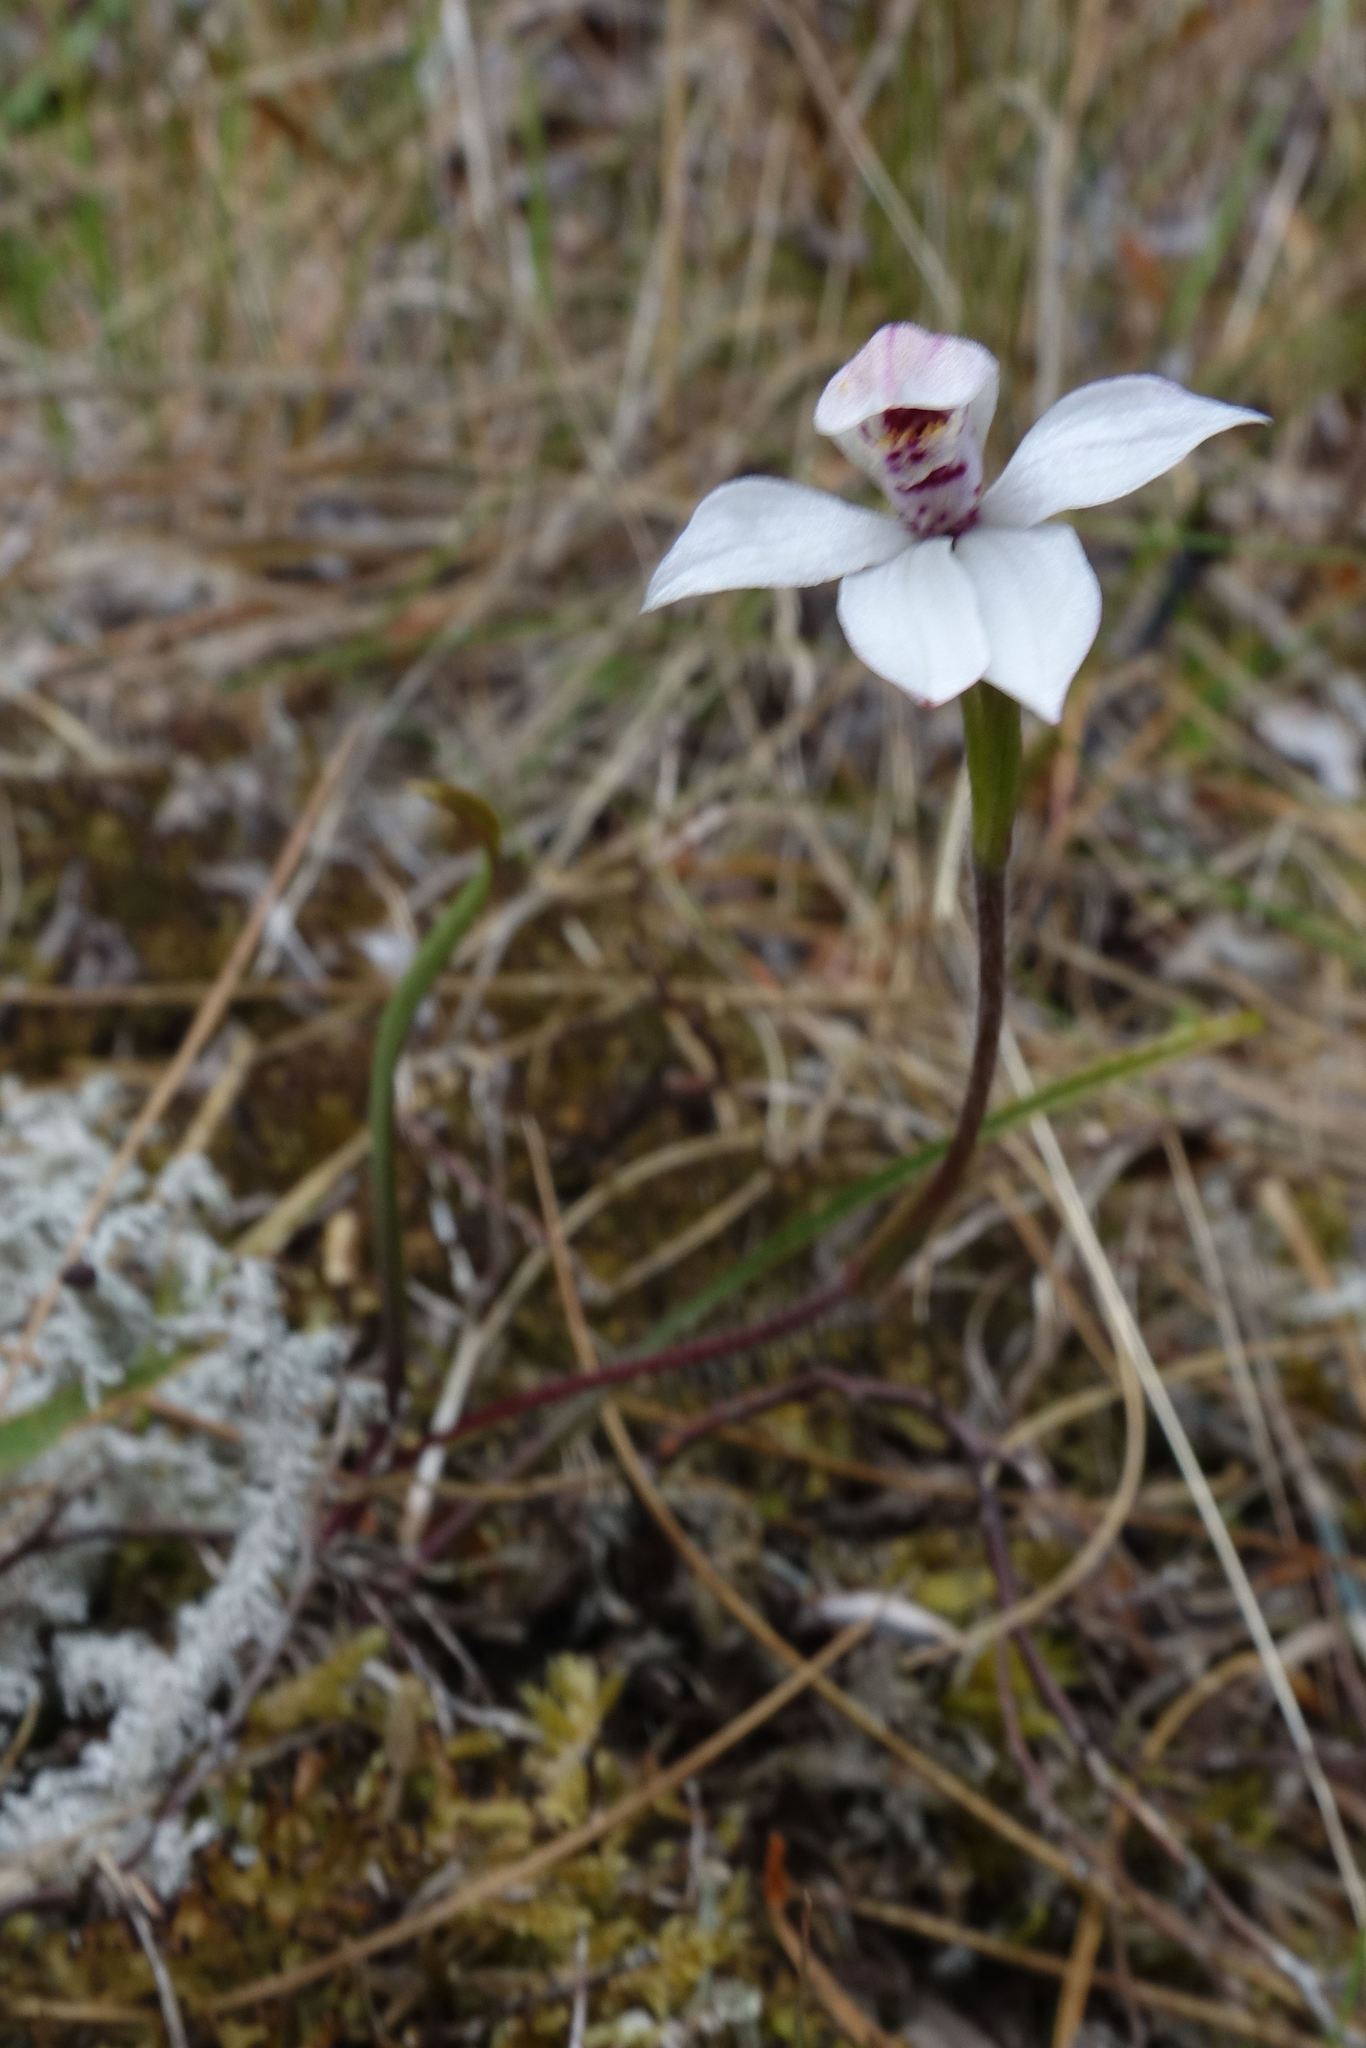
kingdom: Plantae
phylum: Tracheophyta
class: Liliopsida
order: Asparagales
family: Orchidaceae
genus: Caladenia
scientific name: Caladenia lyallii
